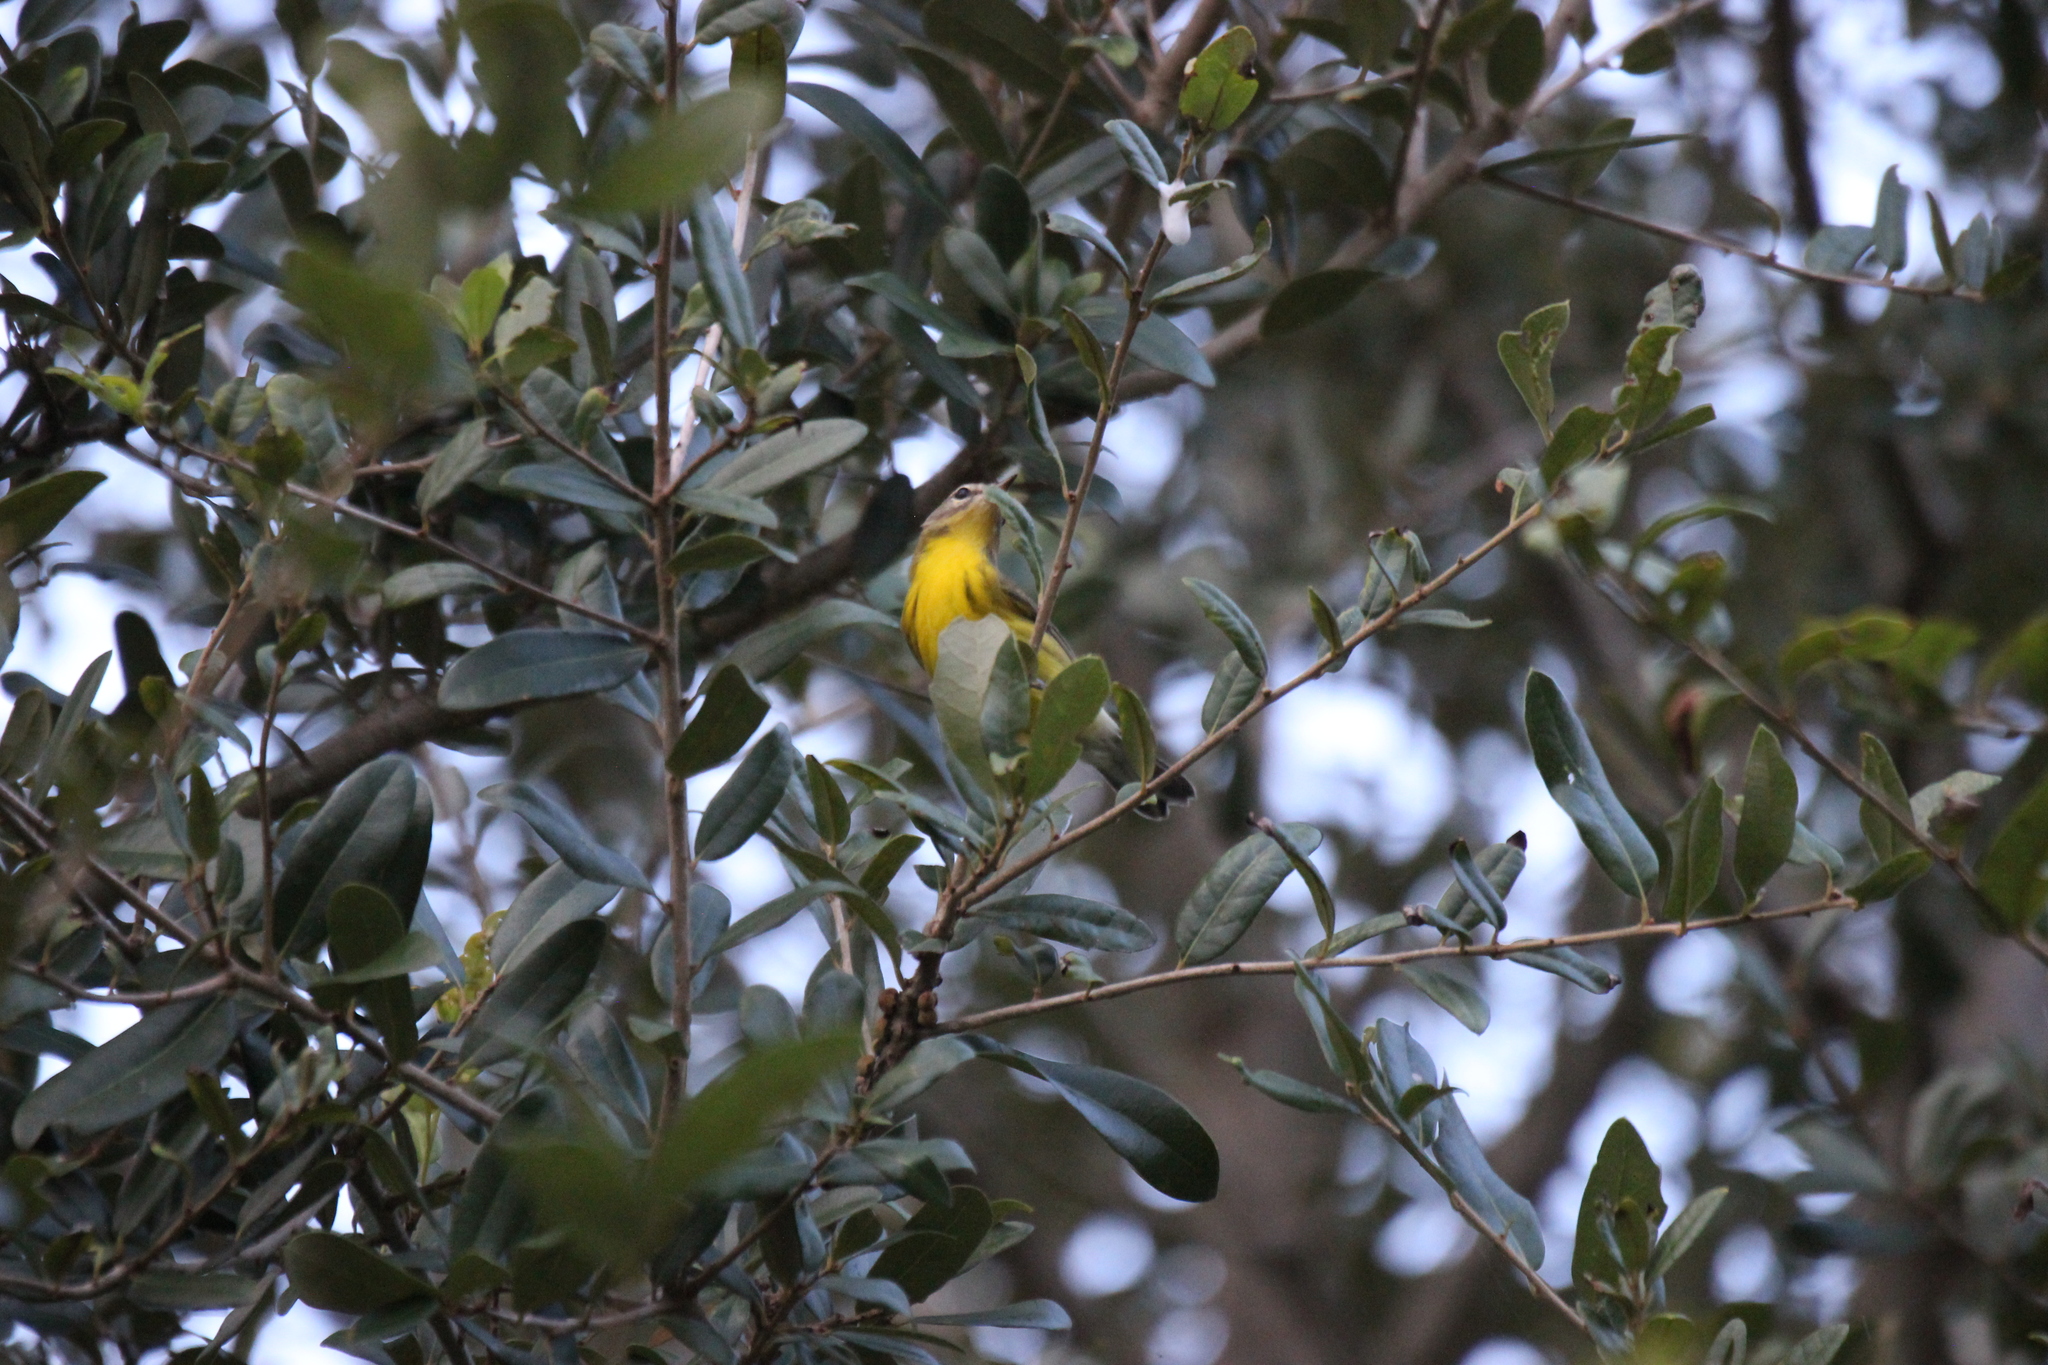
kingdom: Animalia
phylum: Chordata
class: Aves
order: Passeriformes
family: Parulidae
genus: Setophaga
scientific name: Setophaga discolor
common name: Prairie warbler
